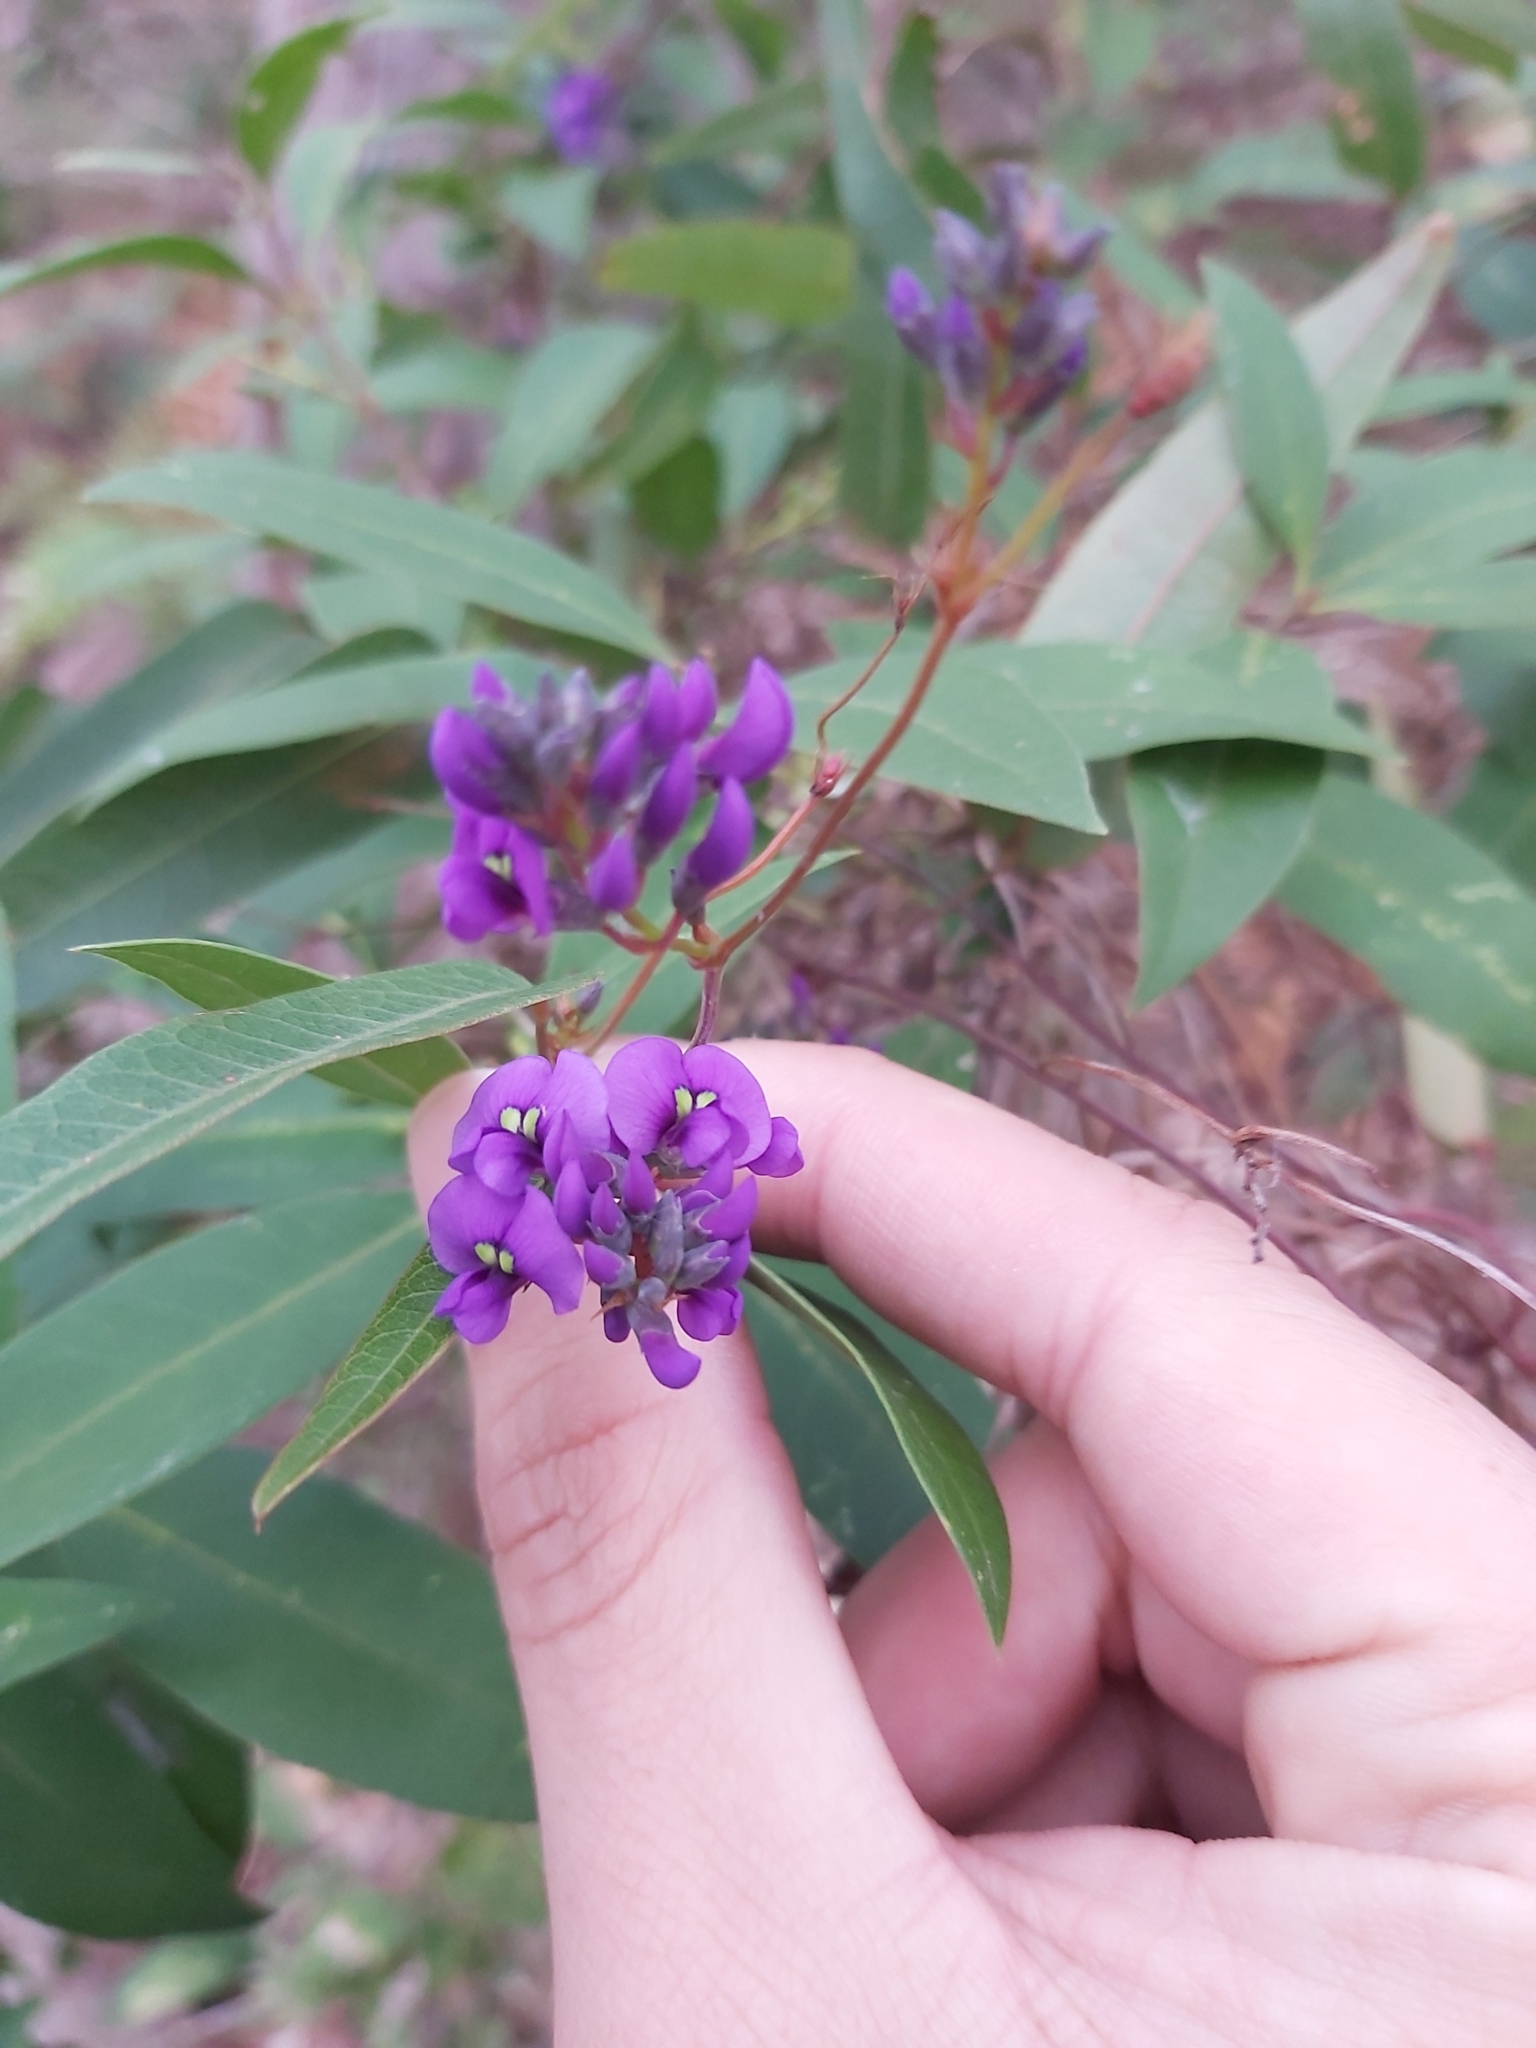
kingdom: Plantae
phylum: Tracheophyta
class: Magnoliopsida
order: Fabales
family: Fabaceae
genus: Hardenbergia
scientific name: Hardenbergia violacea
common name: Coral-pea
